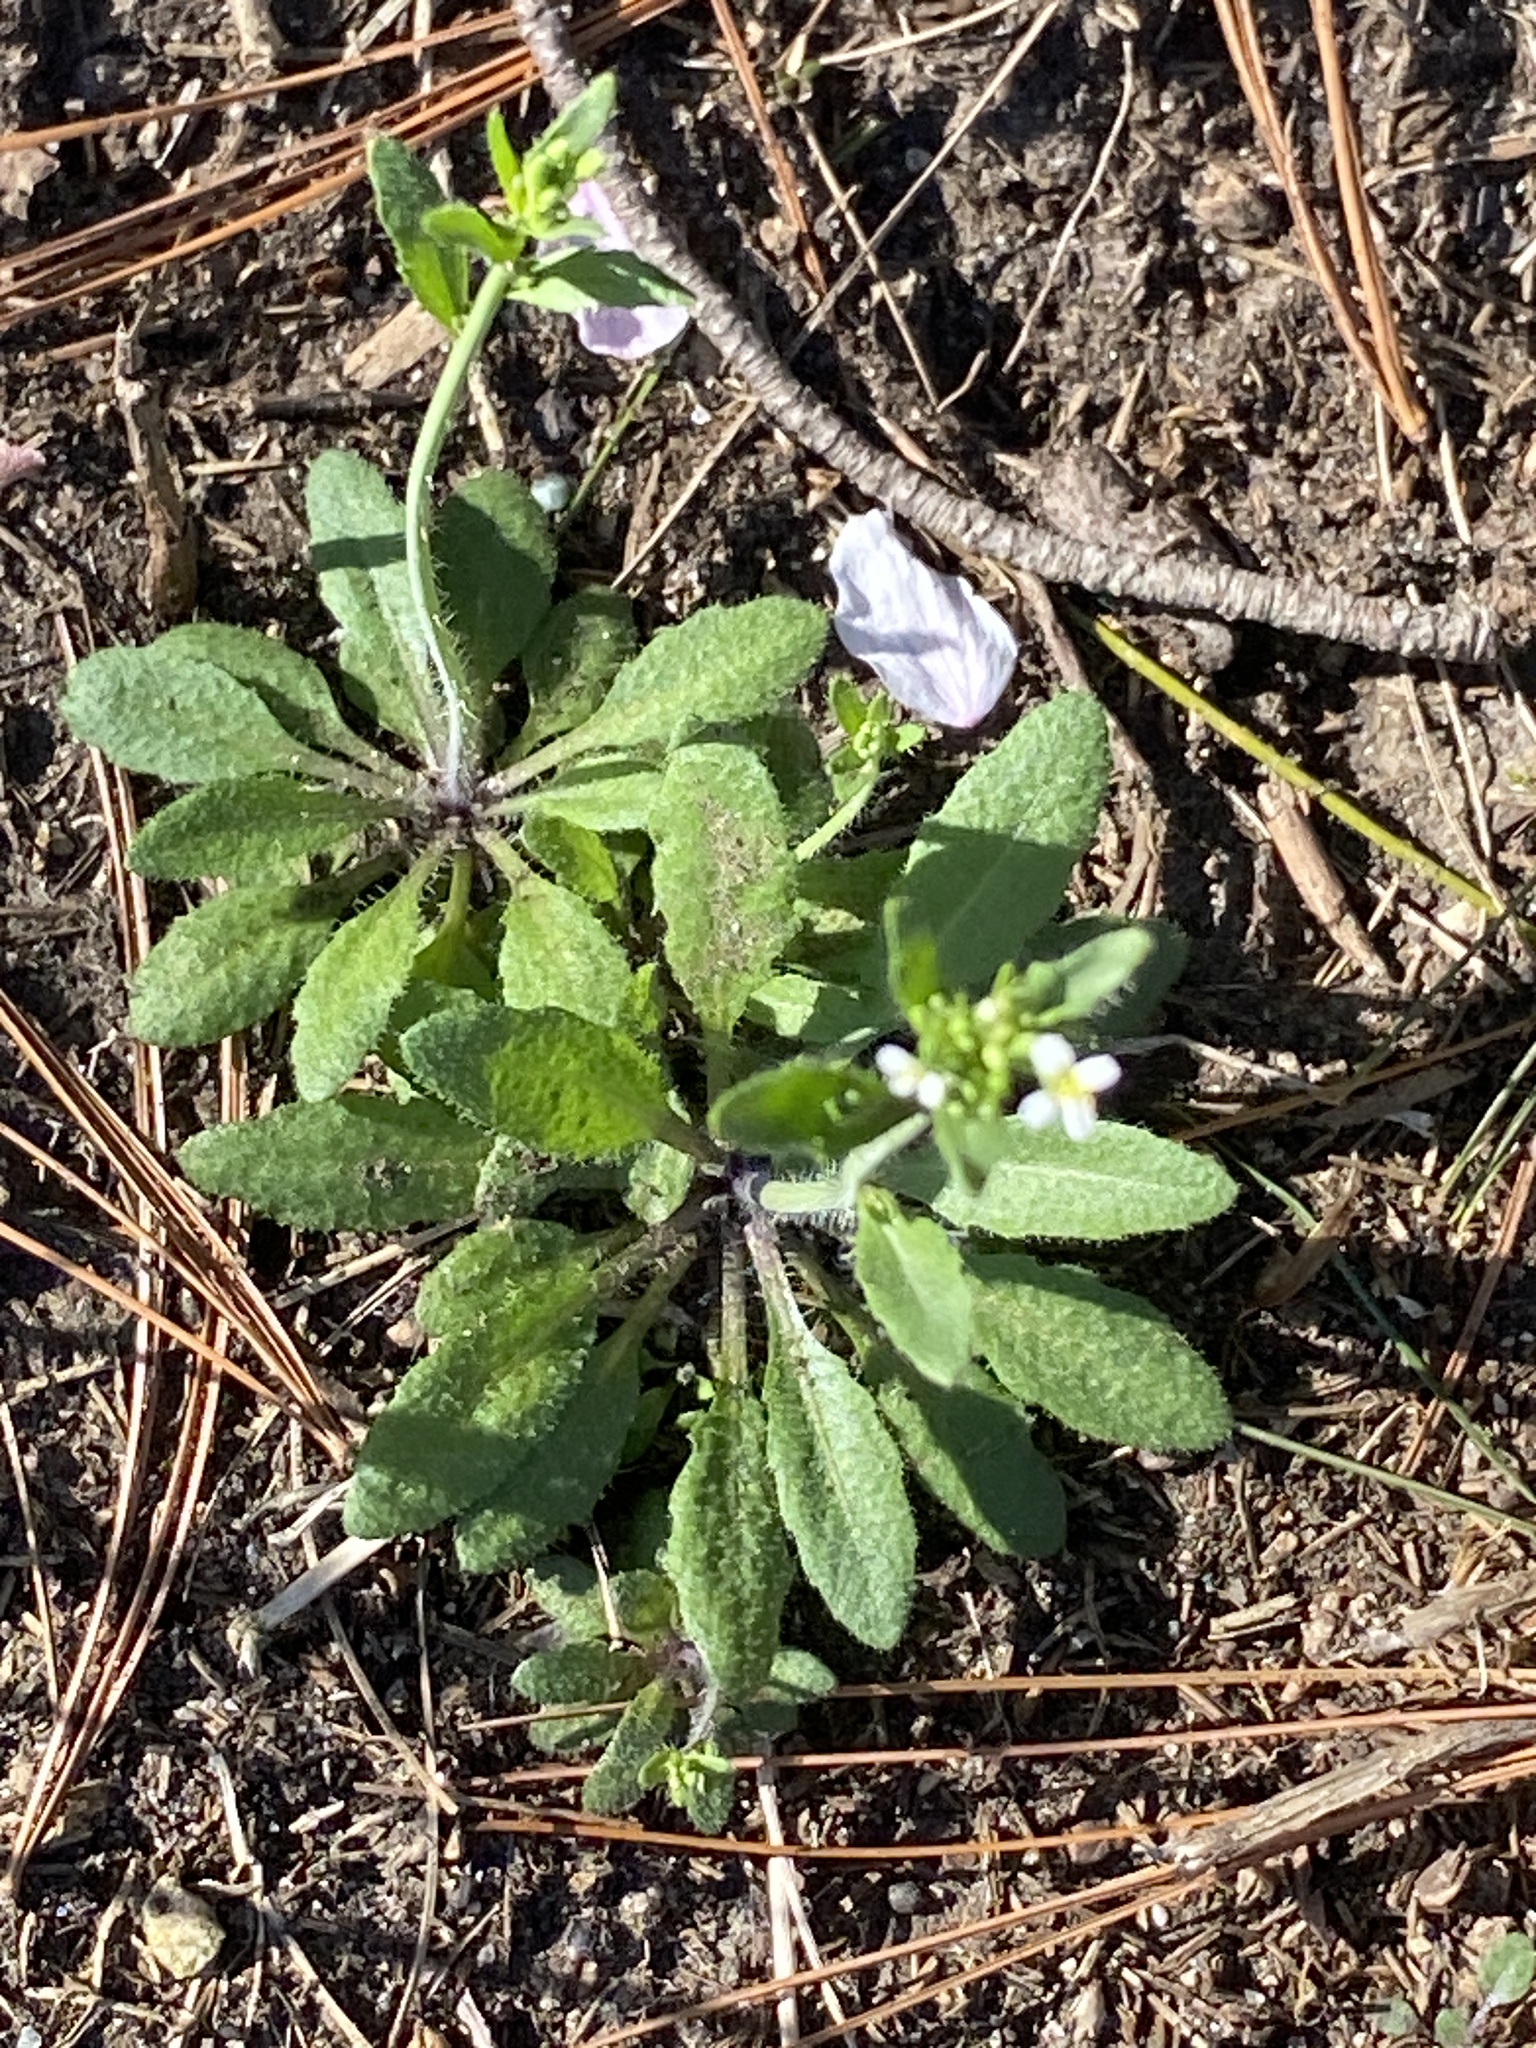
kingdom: Plantae
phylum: Tracheophyta
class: Magnoliopsida
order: Brassicales
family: Brassicaceae
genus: Arabidopsis
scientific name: Arabidopsis thaliana
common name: Thale cress
